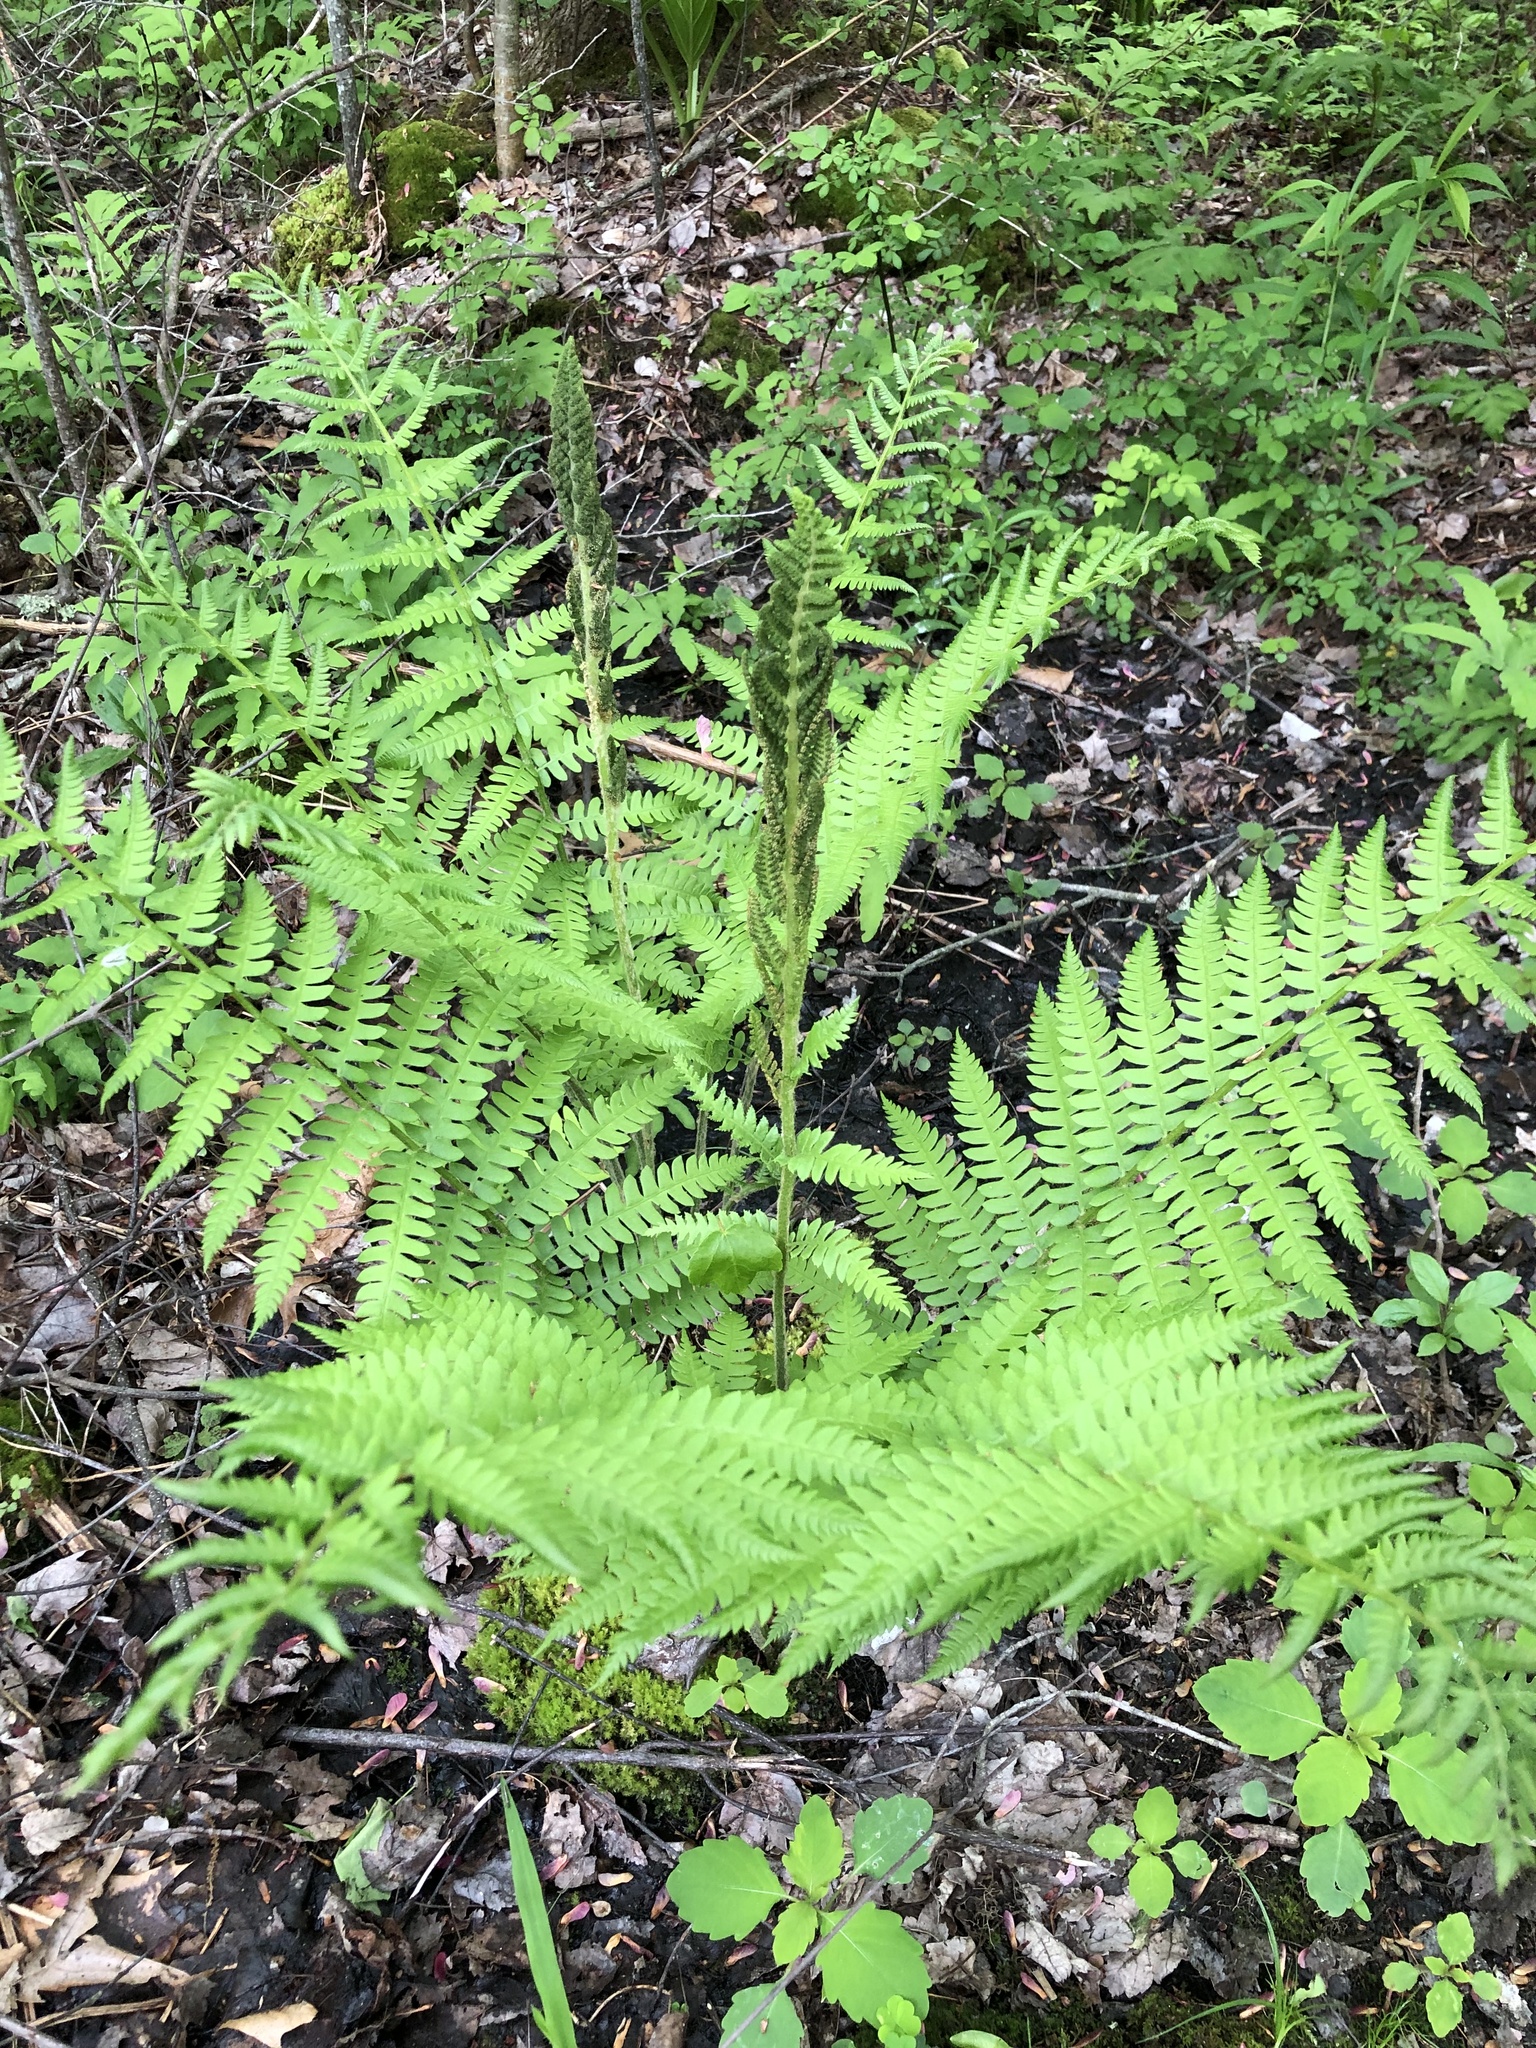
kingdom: Plantae
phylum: Tracheophyta
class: Polypodiopsida
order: Osmundales
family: Osmundaceae
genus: Osmundastrum
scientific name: Osmundastrum cinnamomeum
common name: Cinnamon fern
